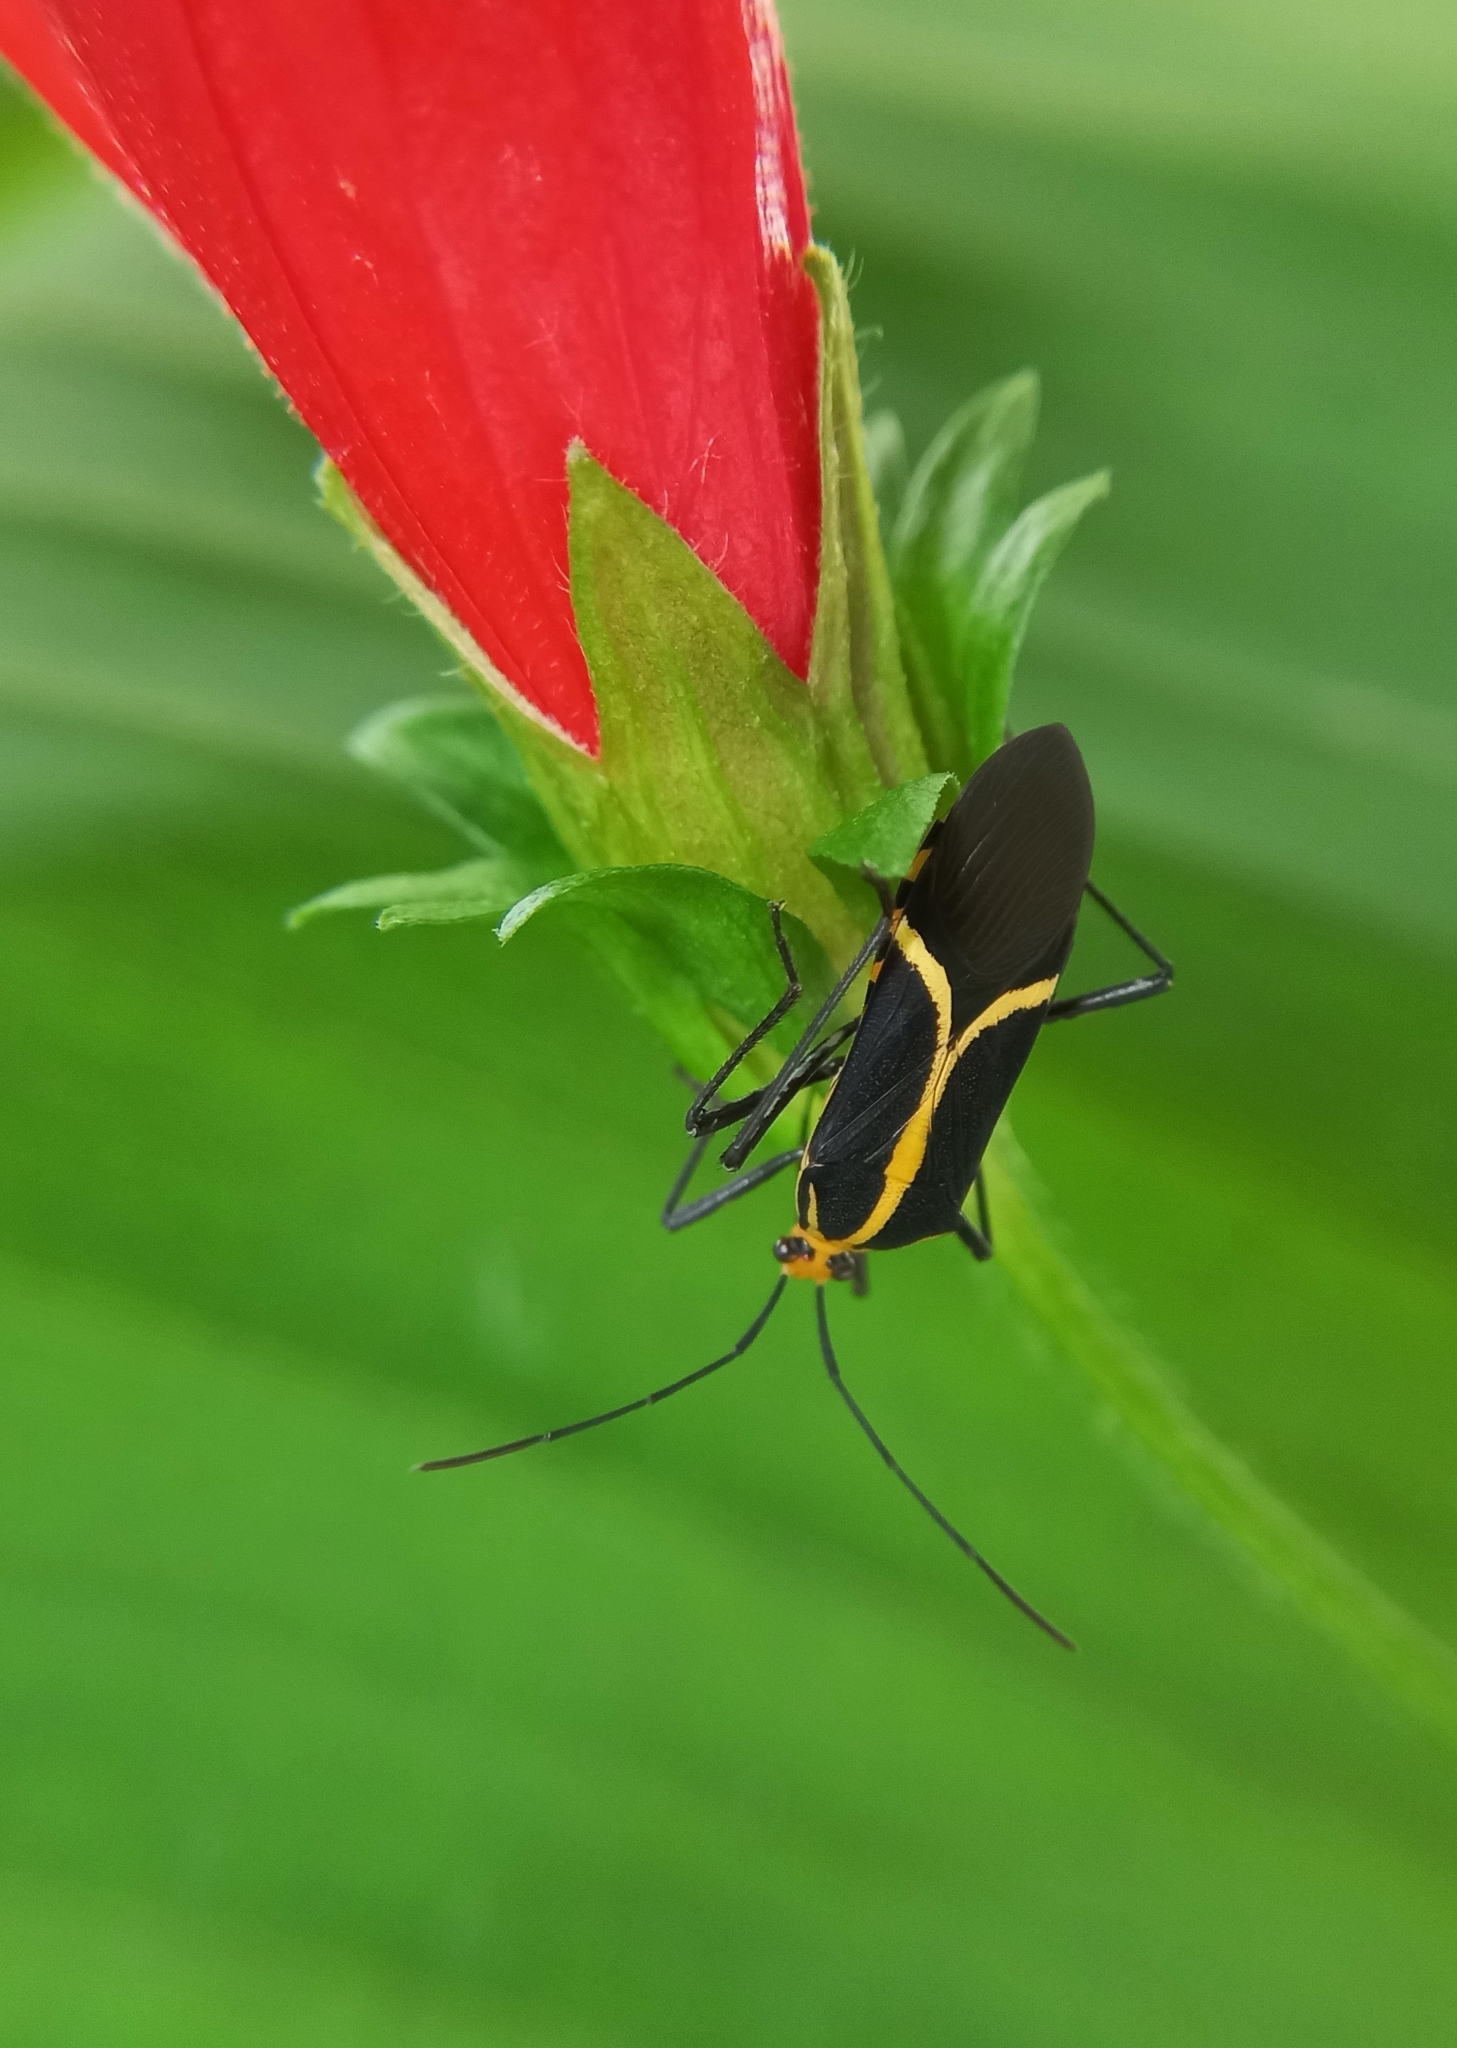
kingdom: Animalia
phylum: Arthropoda
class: Insecta
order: Hemiptera
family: Coreidae
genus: Hypselonotus
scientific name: Hypselonotus linea
